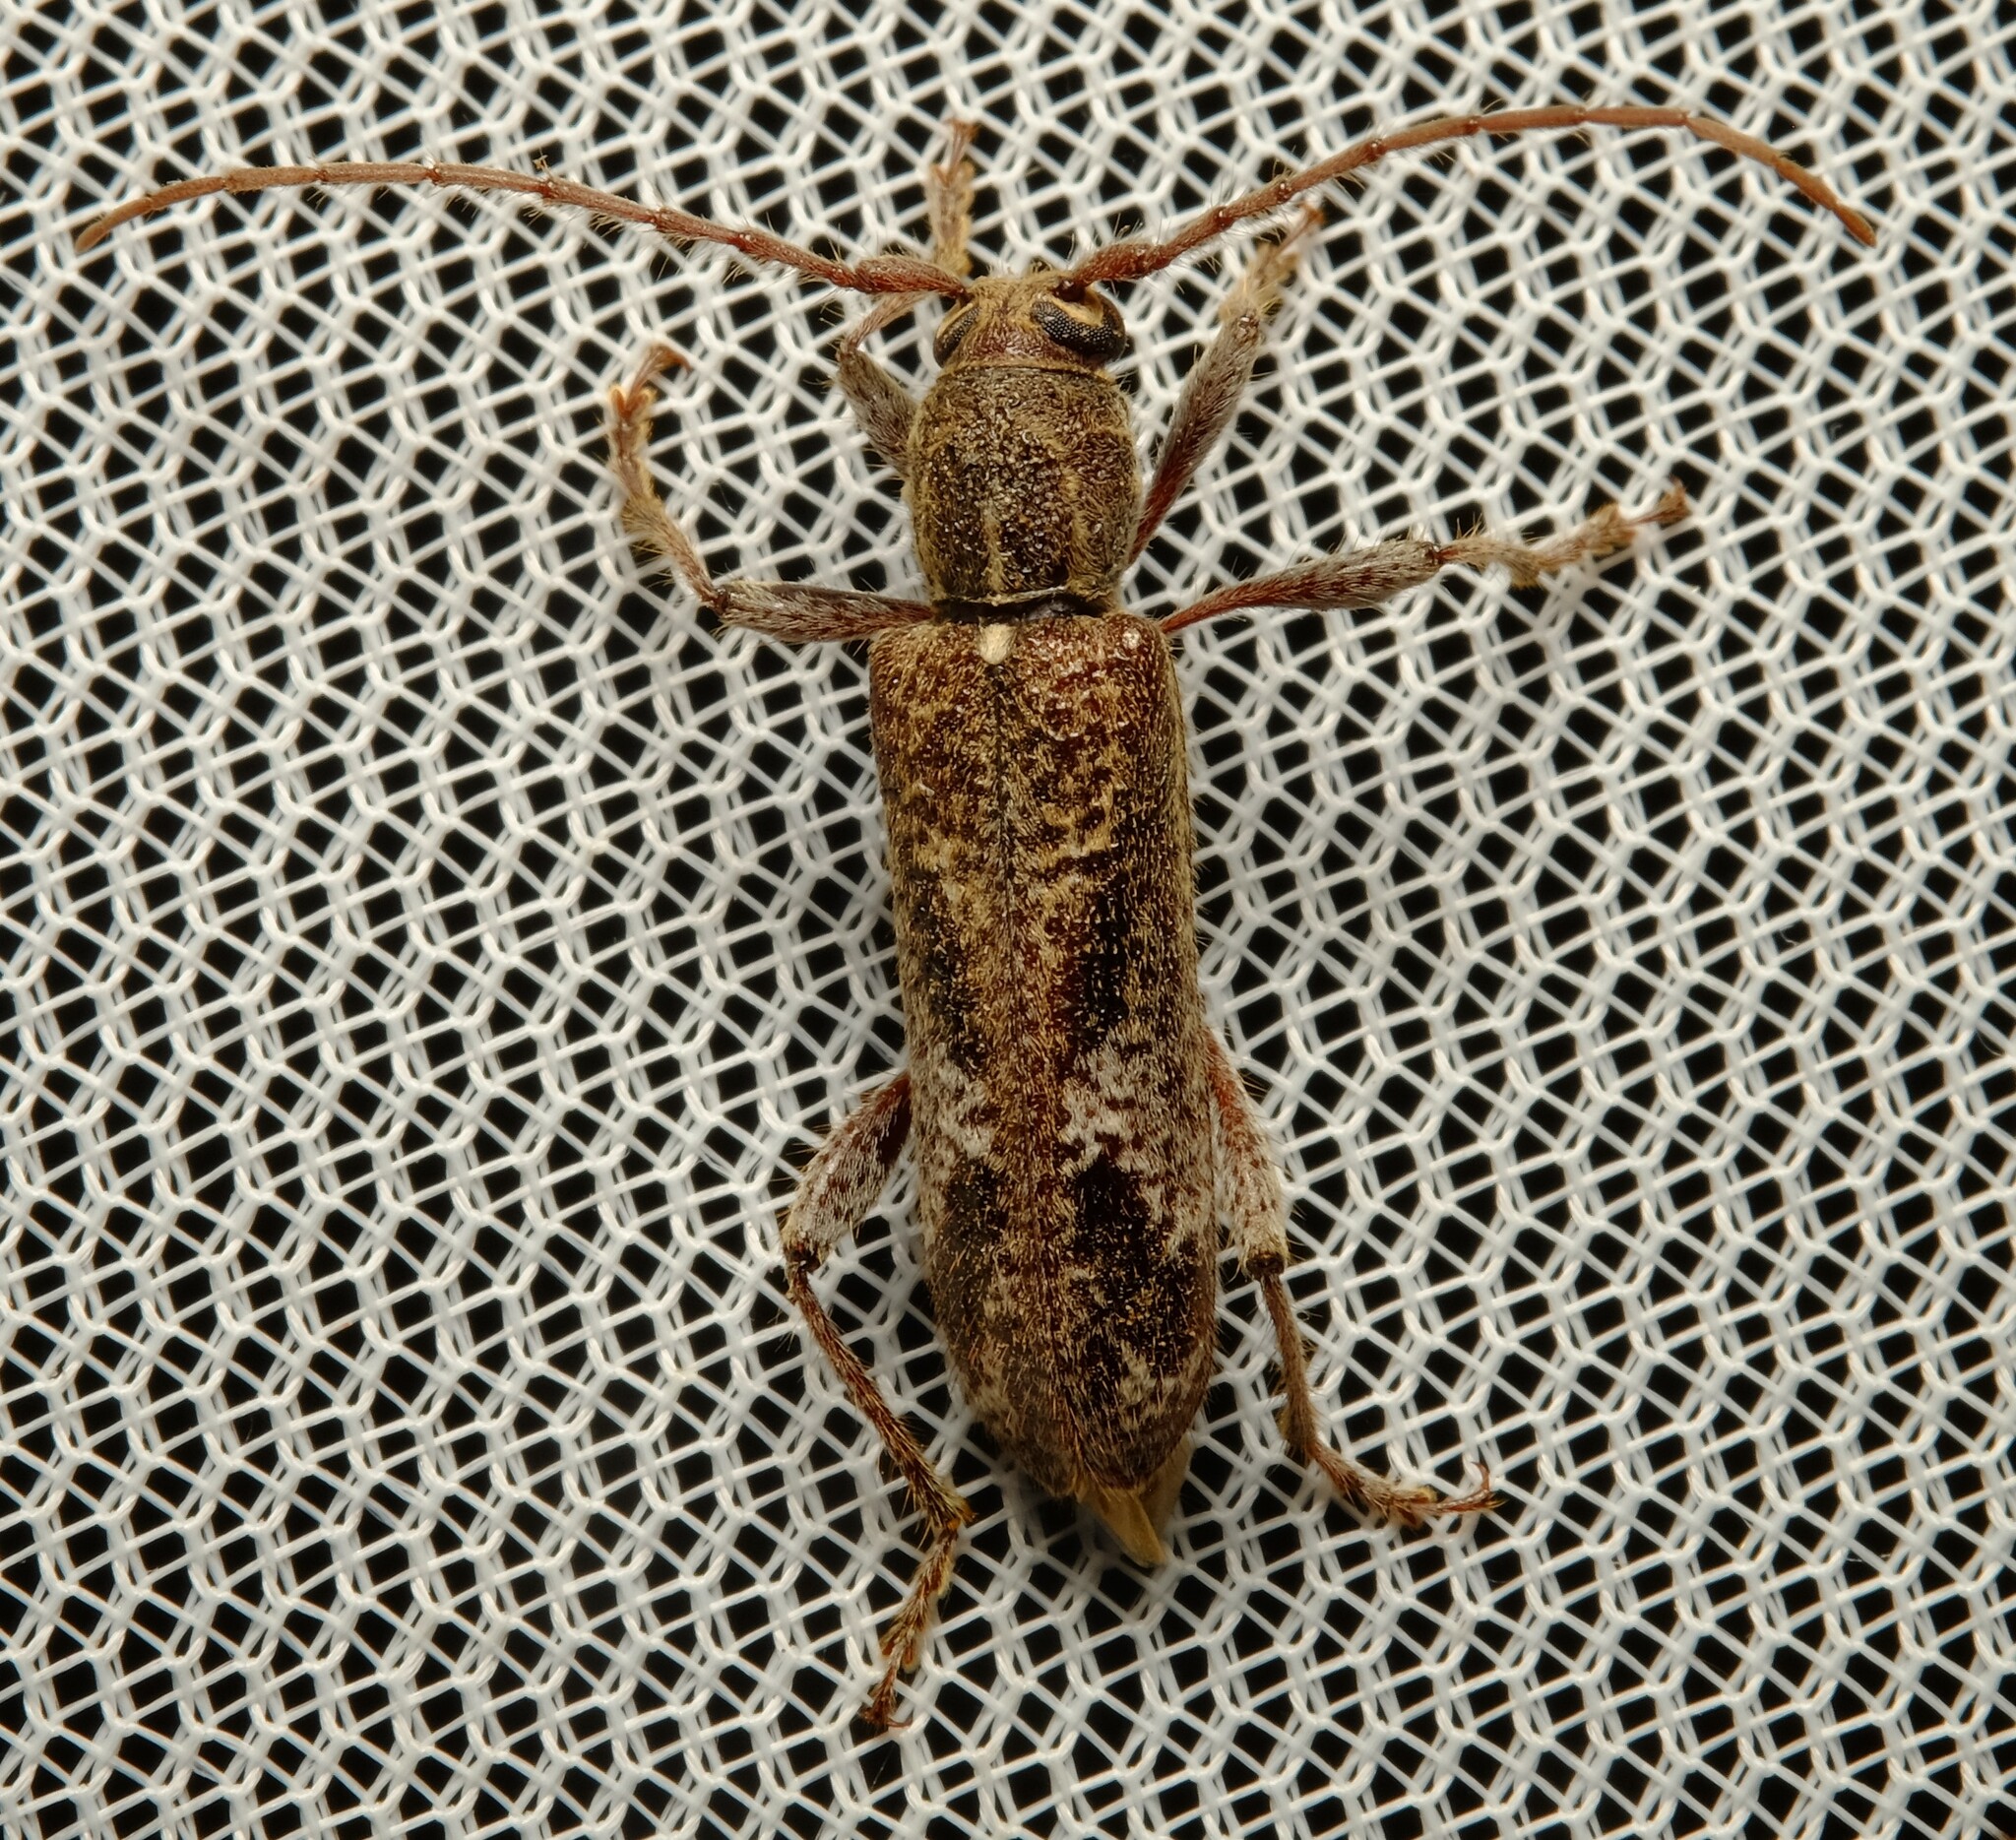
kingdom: Animalia
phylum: Arthropoda
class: Insecta
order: Coleoptera
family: Cerambycidae
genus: Phacodes
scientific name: Phacodes personatus
